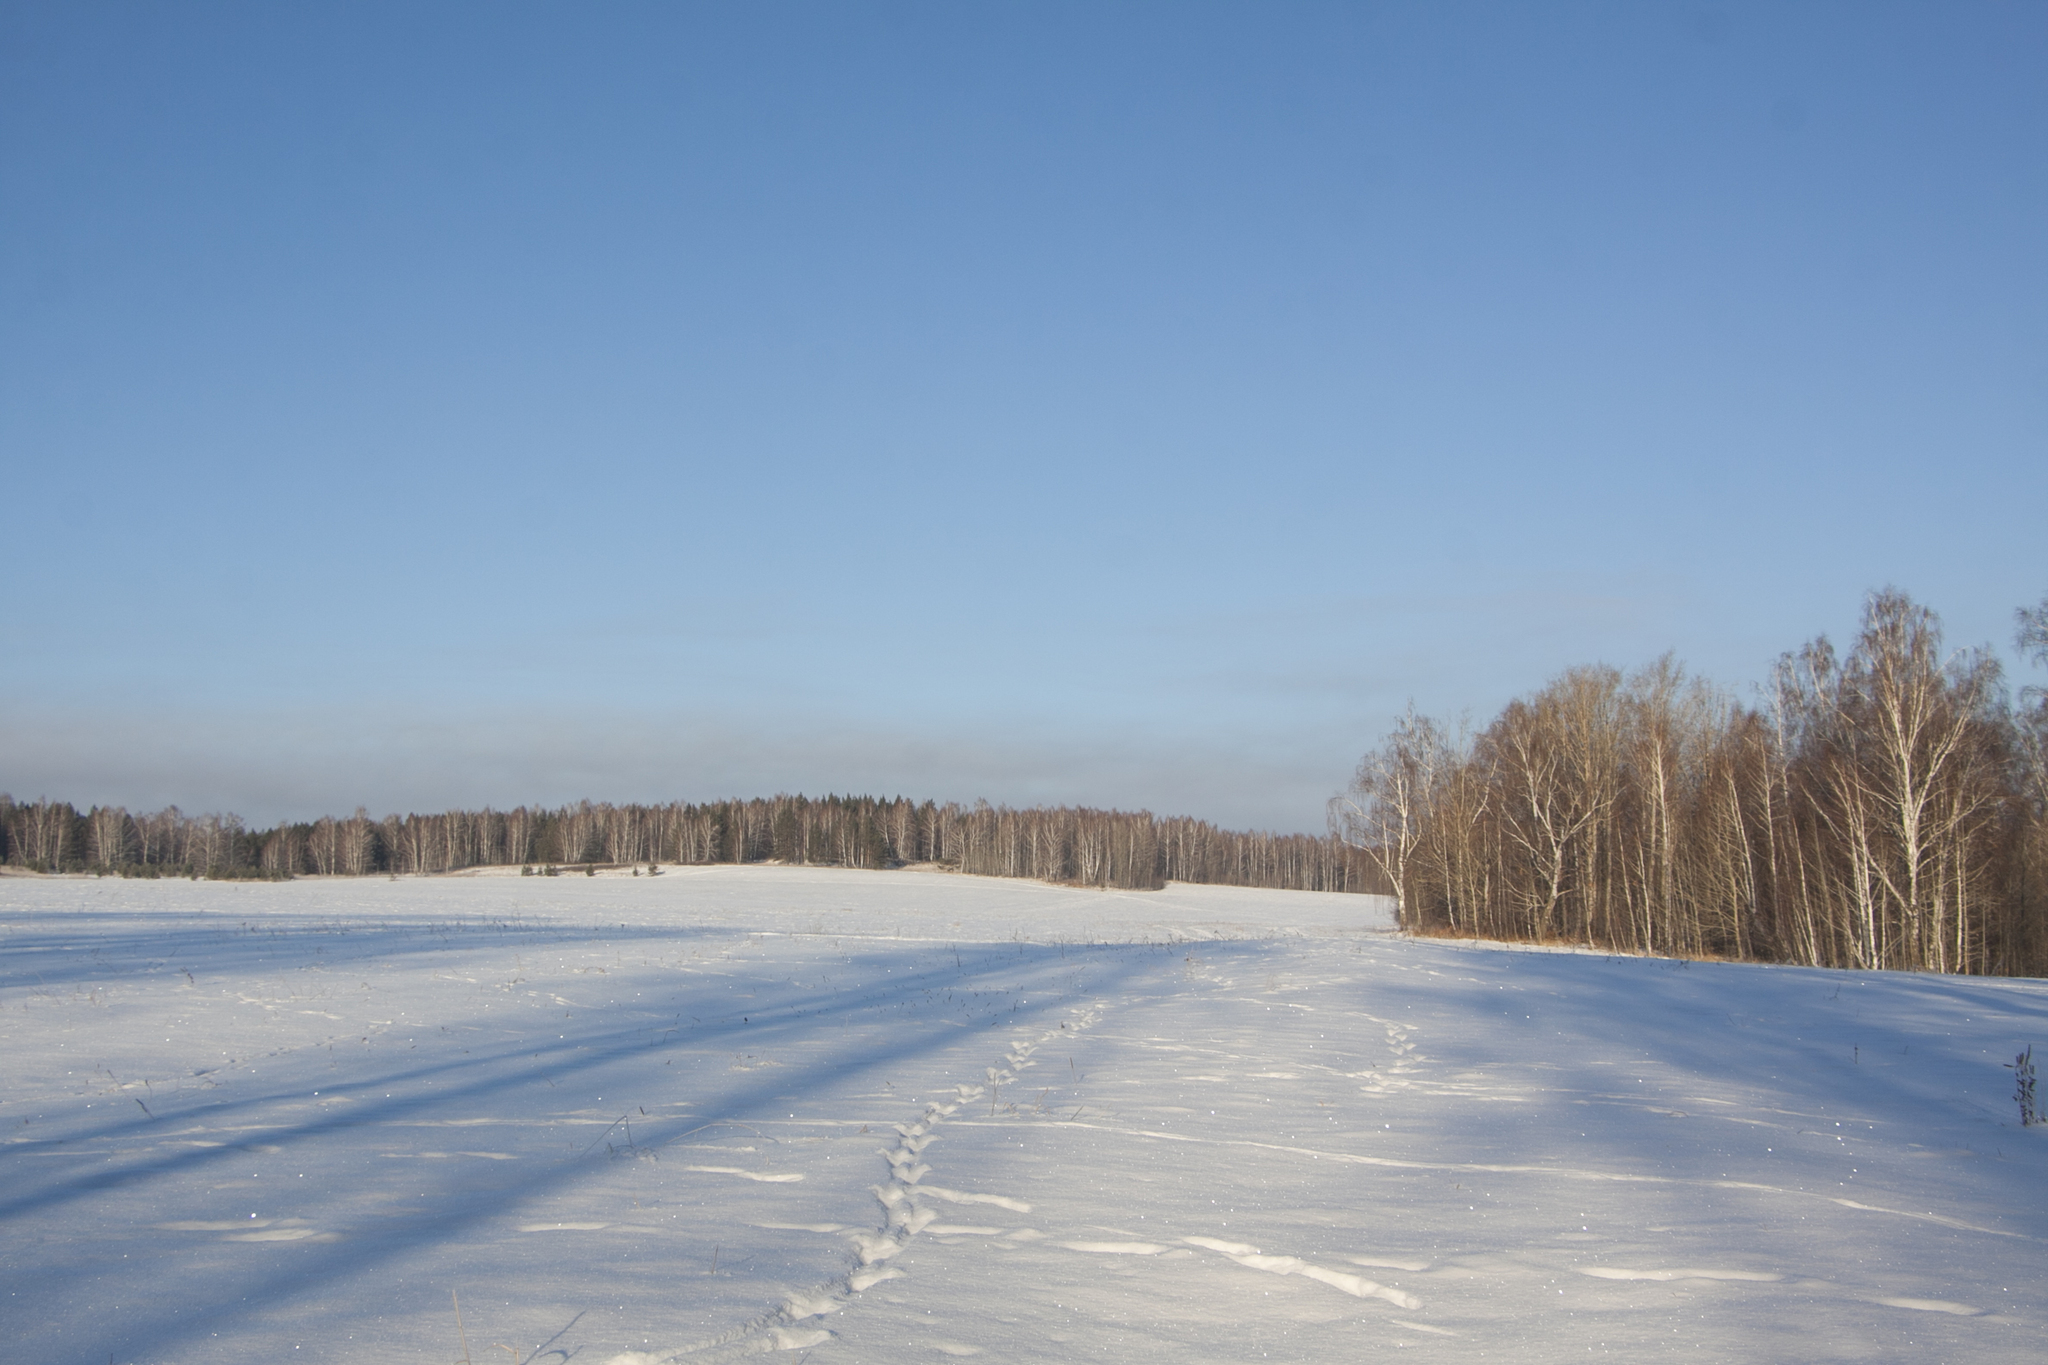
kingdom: Plantae
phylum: Tracheophyta
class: Magnoliopsida
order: Fagales
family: Betulaceae
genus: Betula
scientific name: Betula pendula
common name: Silver birch
